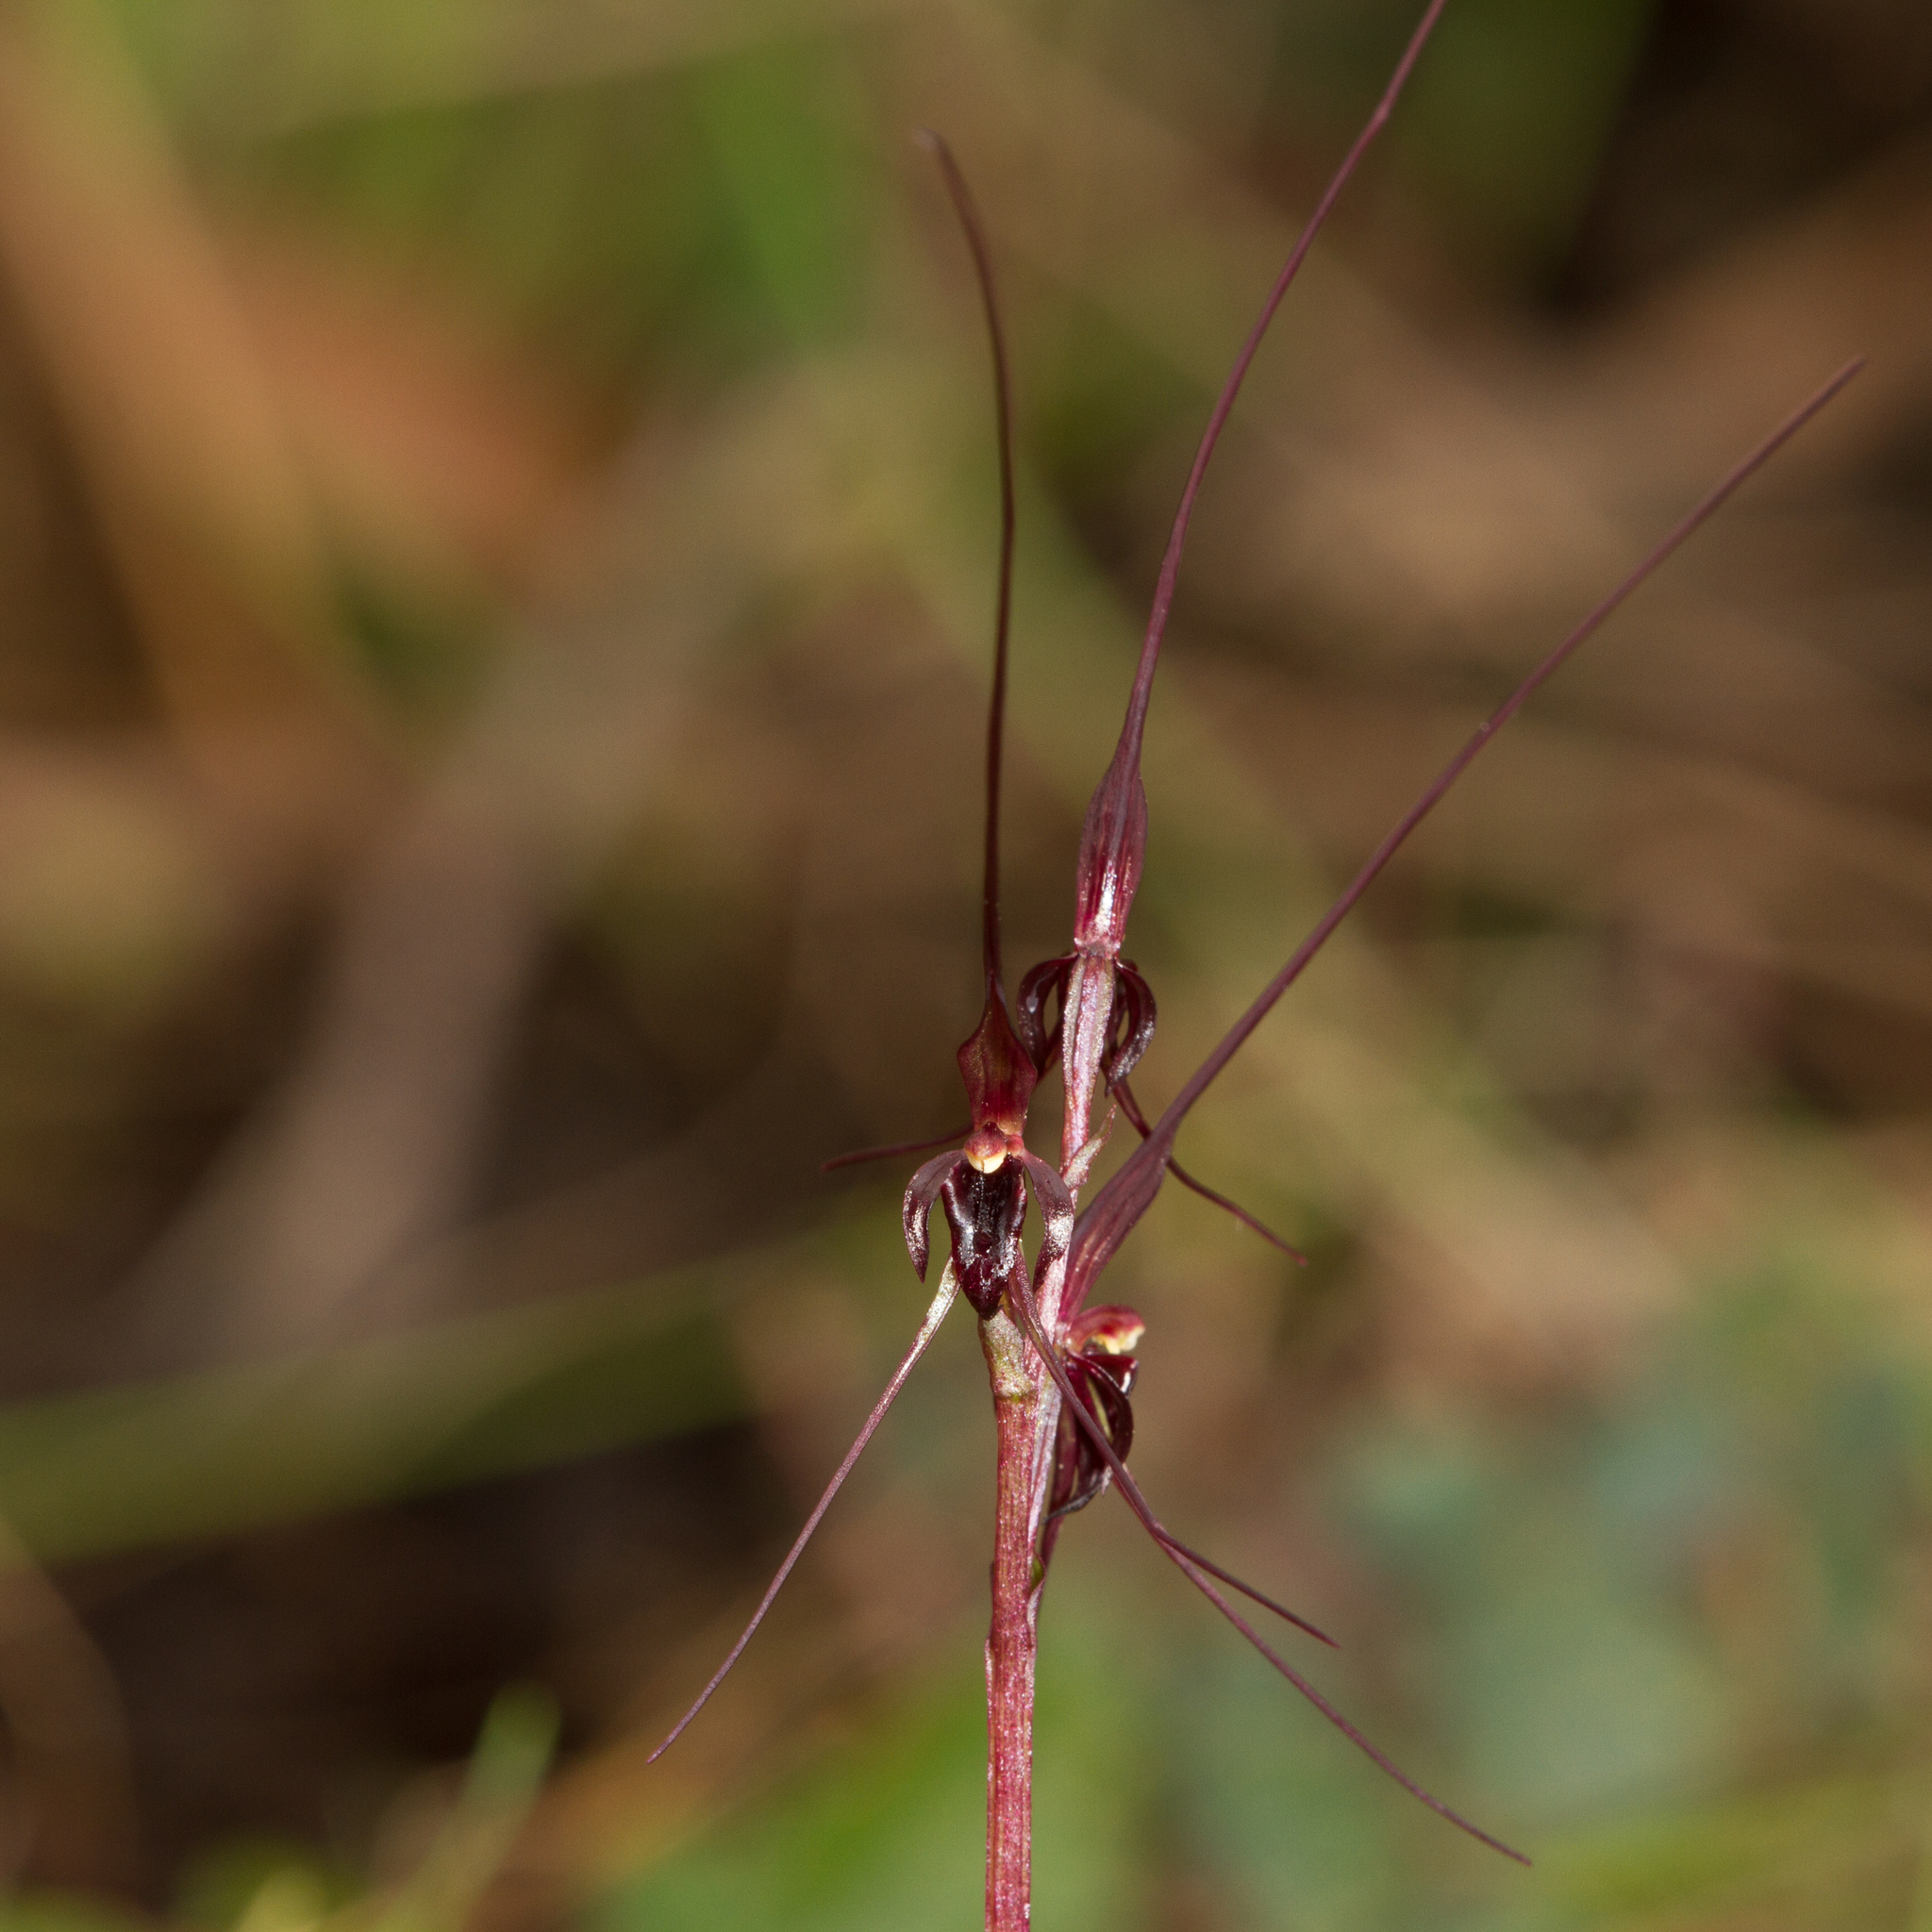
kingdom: Plantae
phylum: Tracheophyta
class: Liliopsida
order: Asparagales
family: Orchidaceae
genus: Acianthus
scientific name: Acianthus caudatus
